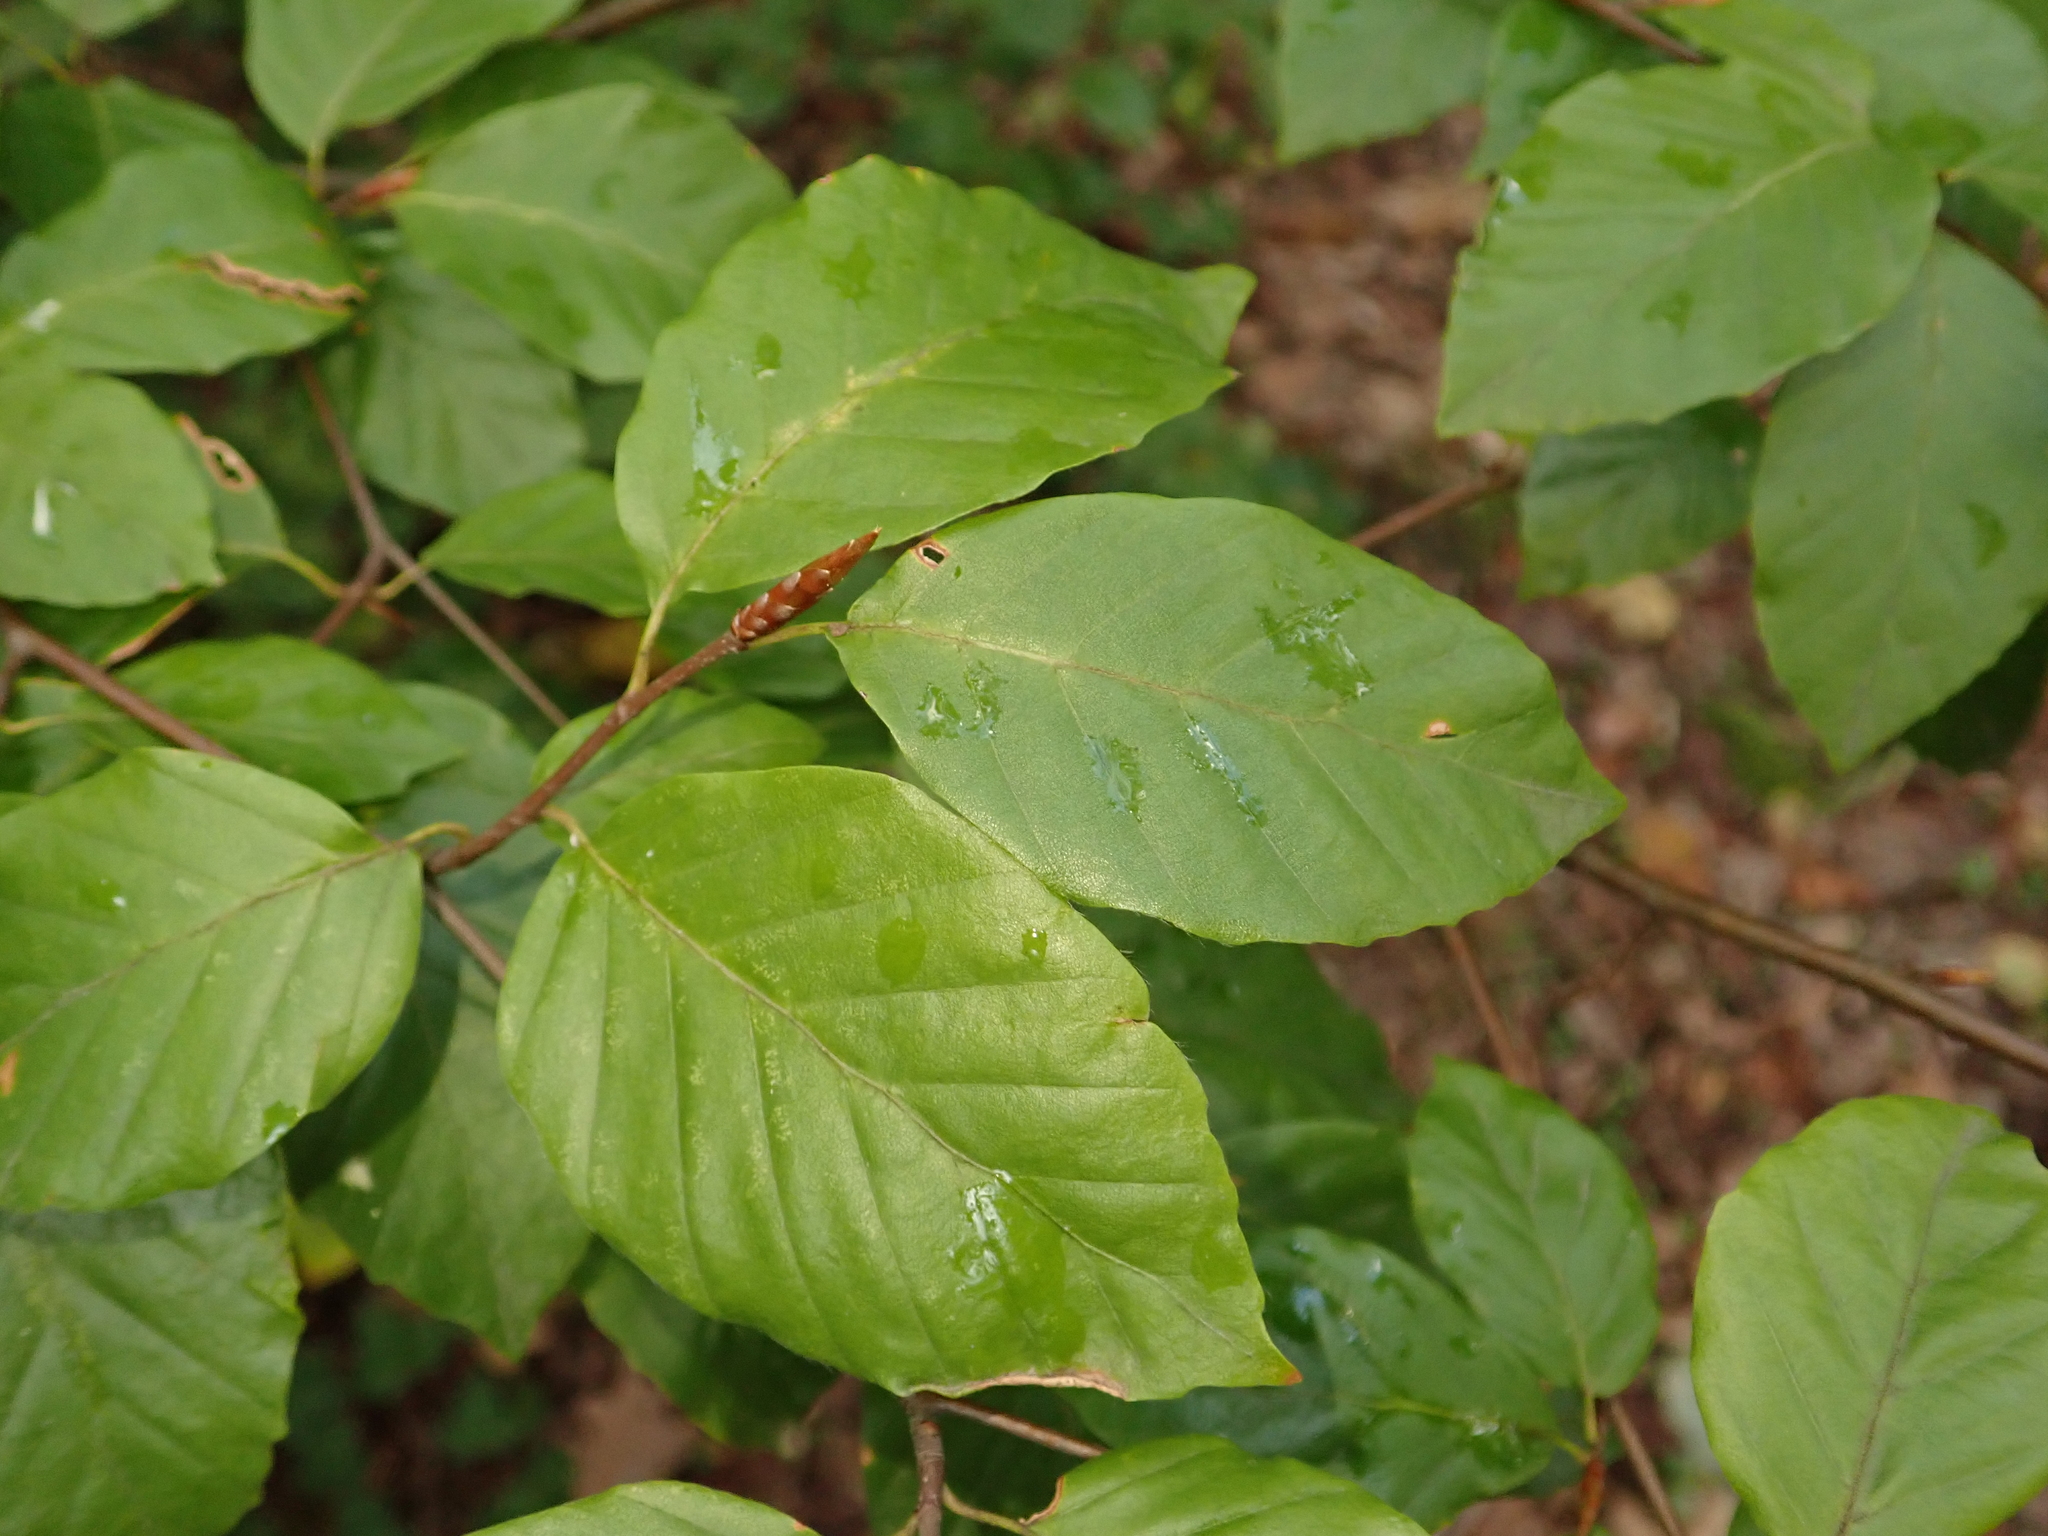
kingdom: Plantae
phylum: Tracheophyta
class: Magnoliopsida
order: Fagales
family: Fagaceae
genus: Fagus
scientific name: Fagus sylvatica
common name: Beech
